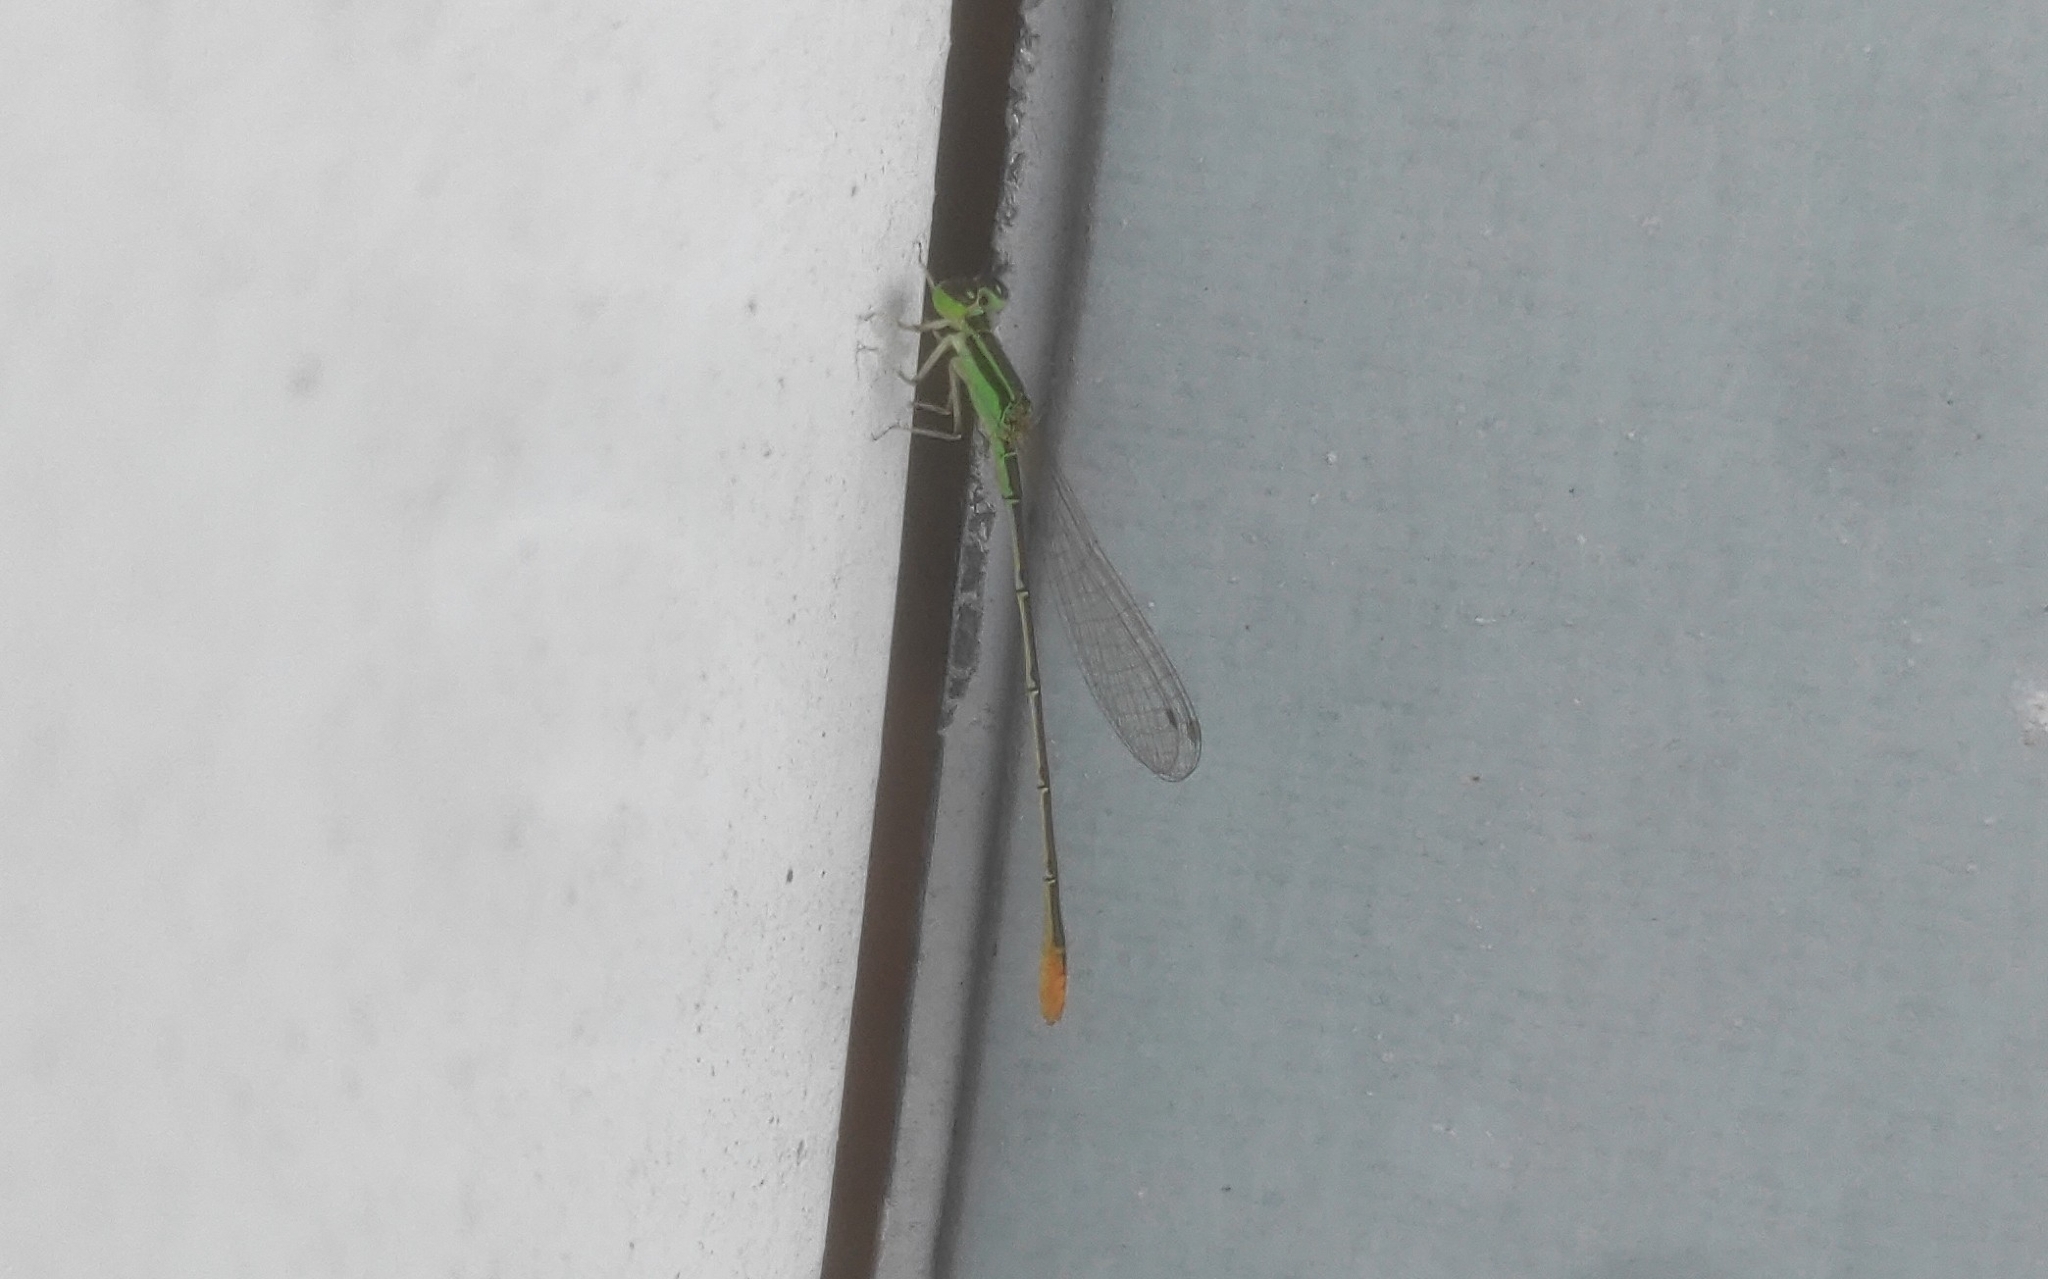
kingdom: Animalia
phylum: Arthropoda
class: Insecta
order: Odonata
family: Coenagrionidae
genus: Agriocnemis
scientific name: Agriocnemis pygmaea
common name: Pygmy wisp
